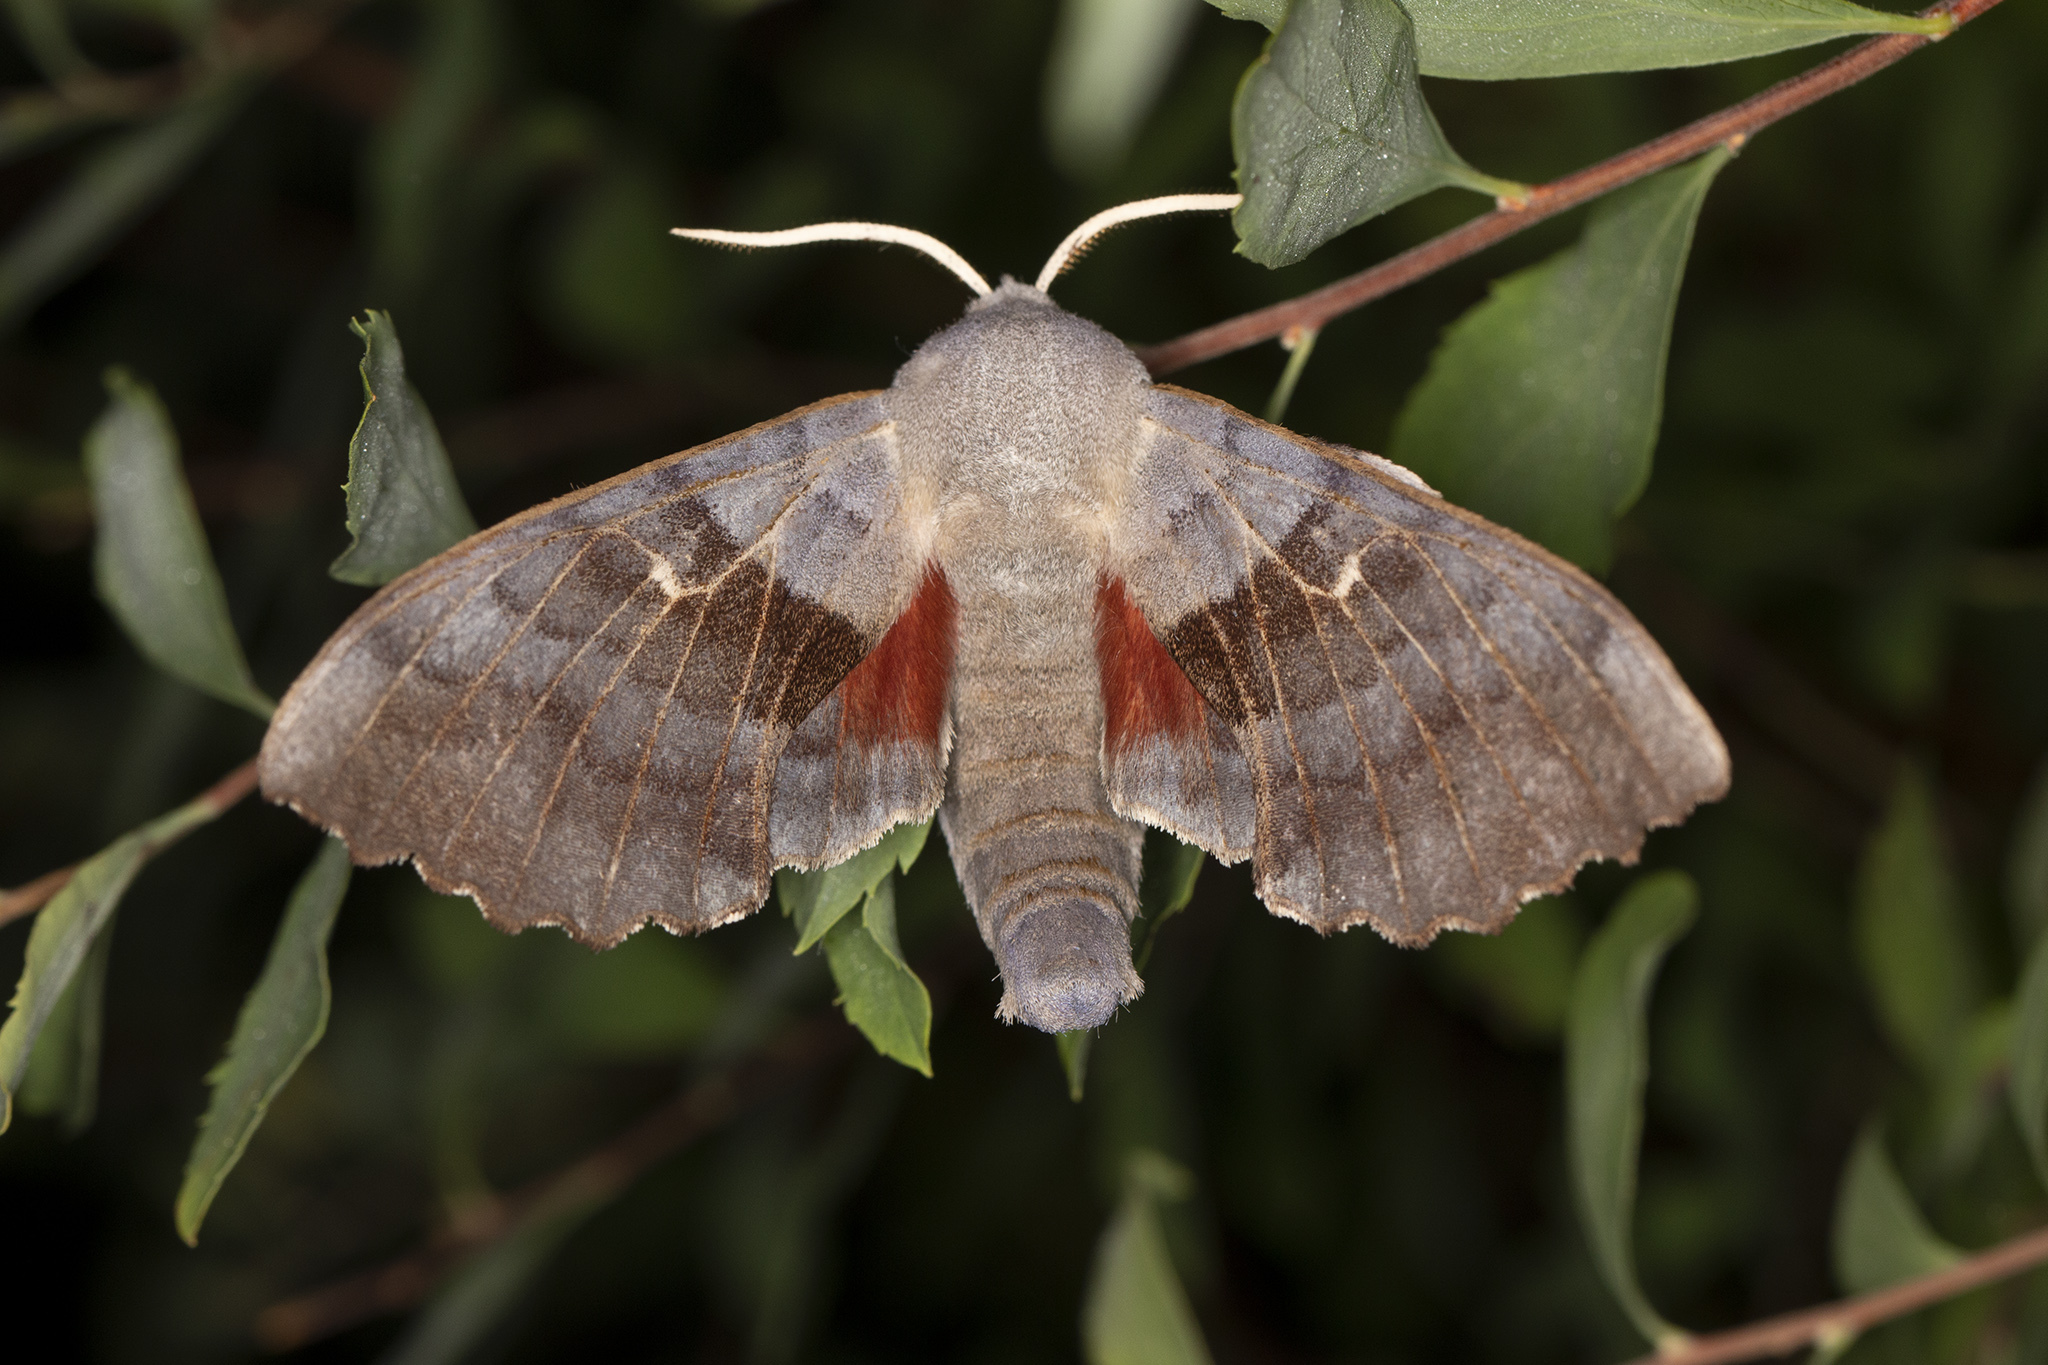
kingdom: Animalia
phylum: Arthropoda
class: Insecta
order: Lepidoptera
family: Sphingidae
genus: Laothoe
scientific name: Laothoe populi
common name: Poplar hawk-moth
